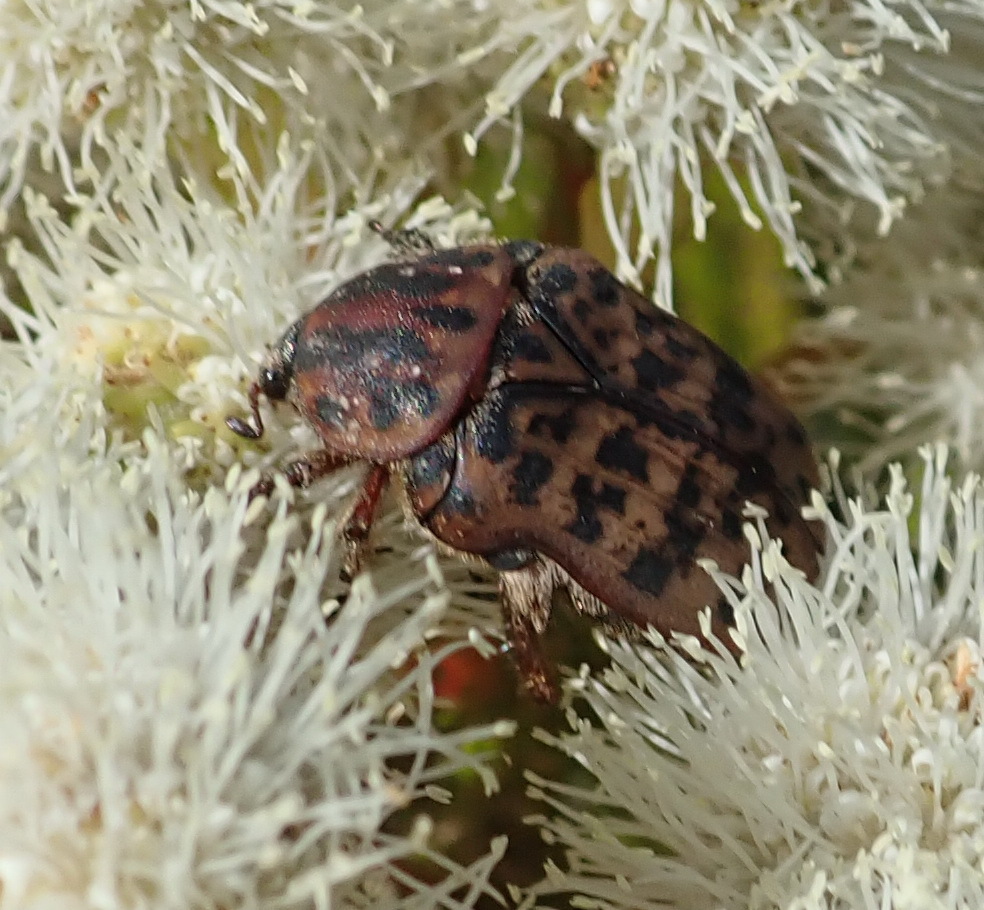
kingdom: Animalia
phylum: Arthropoda
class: Insecta
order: Coleoptera
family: Scarabaeidae
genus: Atrichelaphinis
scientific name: Atrichelaphinis tigrina
